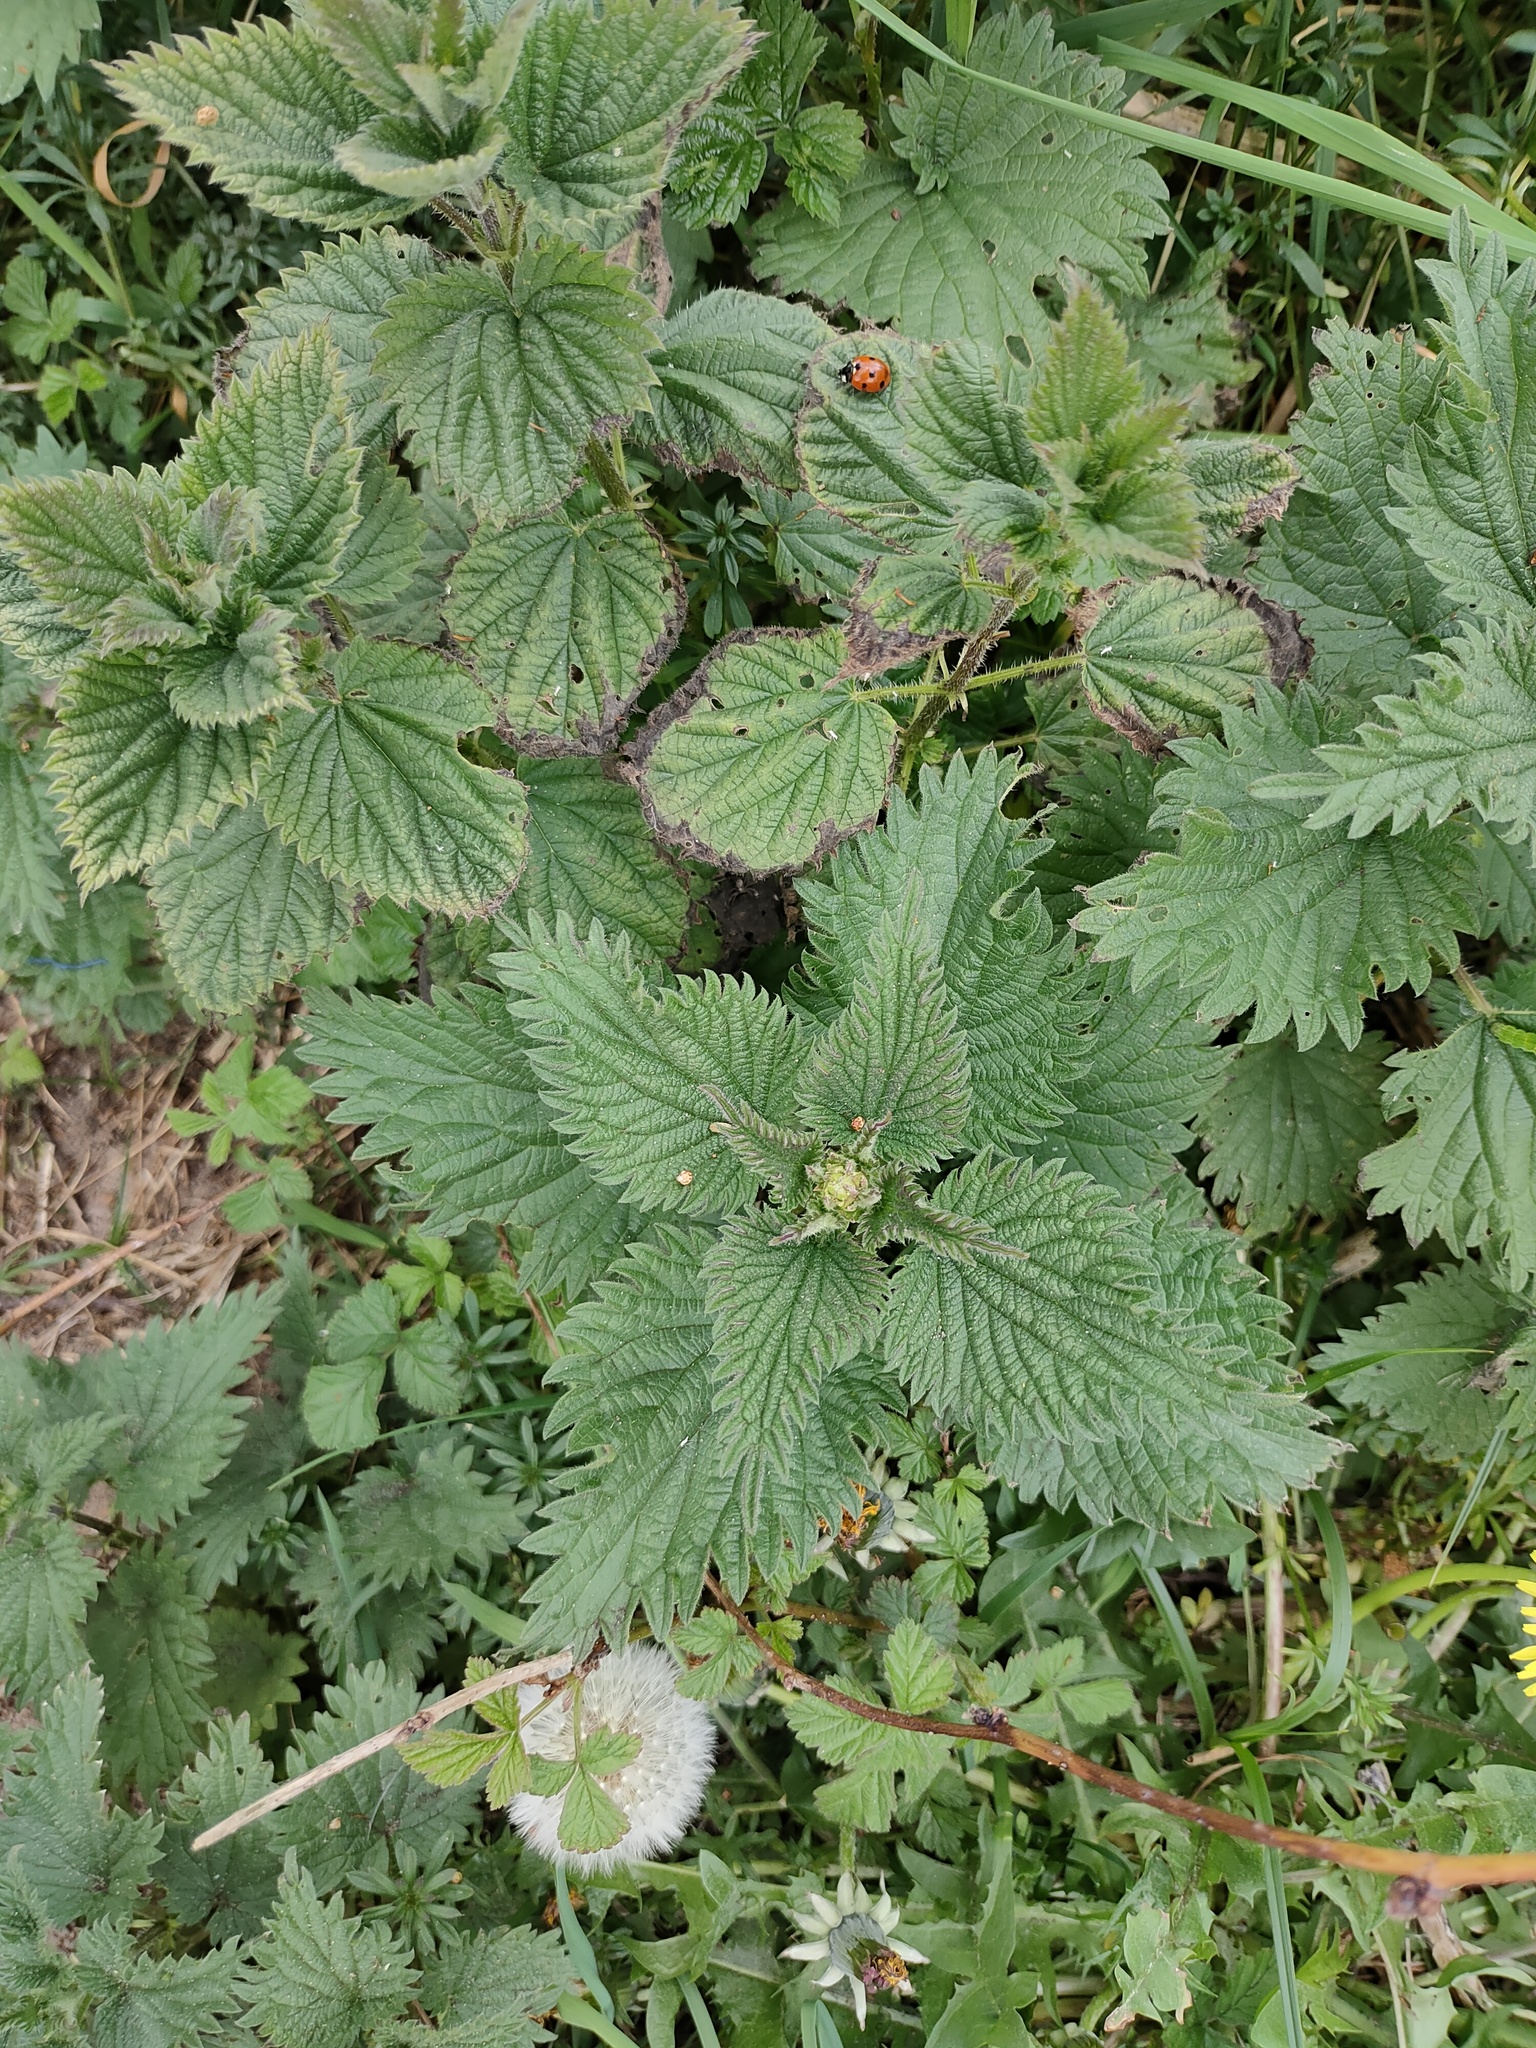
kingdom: Plantae
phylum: Tracheophyta
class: Magnoliopsida
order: Rosales
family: Urticaceae
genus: Urtica
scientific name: Urtica dioica
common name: Common nettle
